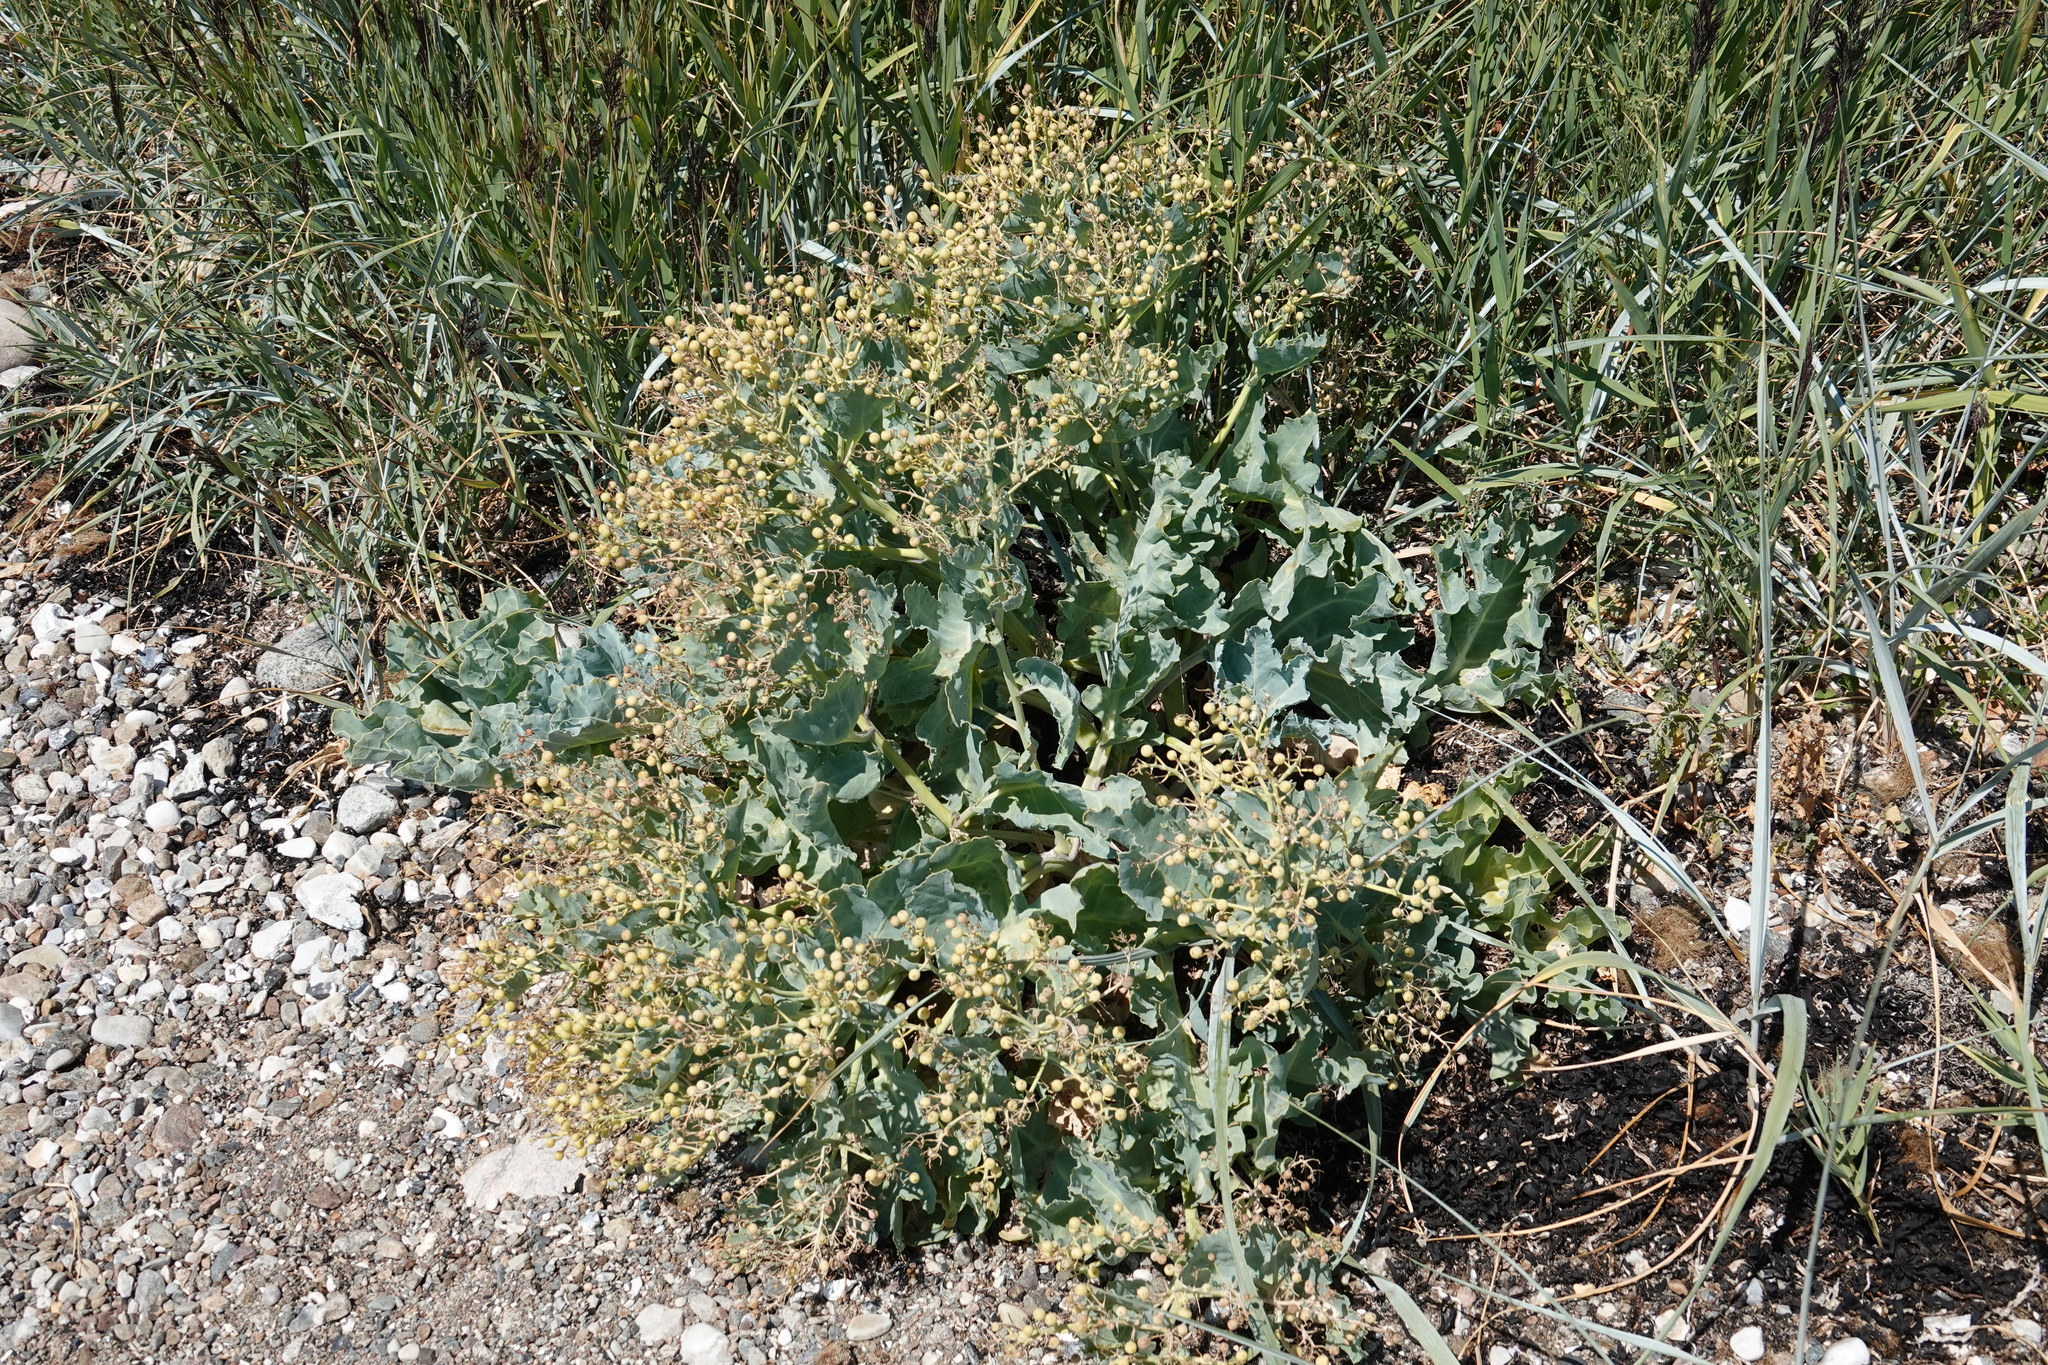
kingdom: Plantae
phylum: Tracheophyta
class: Magnoliopsida
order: Brassicales
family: Brassicaceae
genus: Crambe
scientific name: Crambe maritima
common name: Sea-kale
